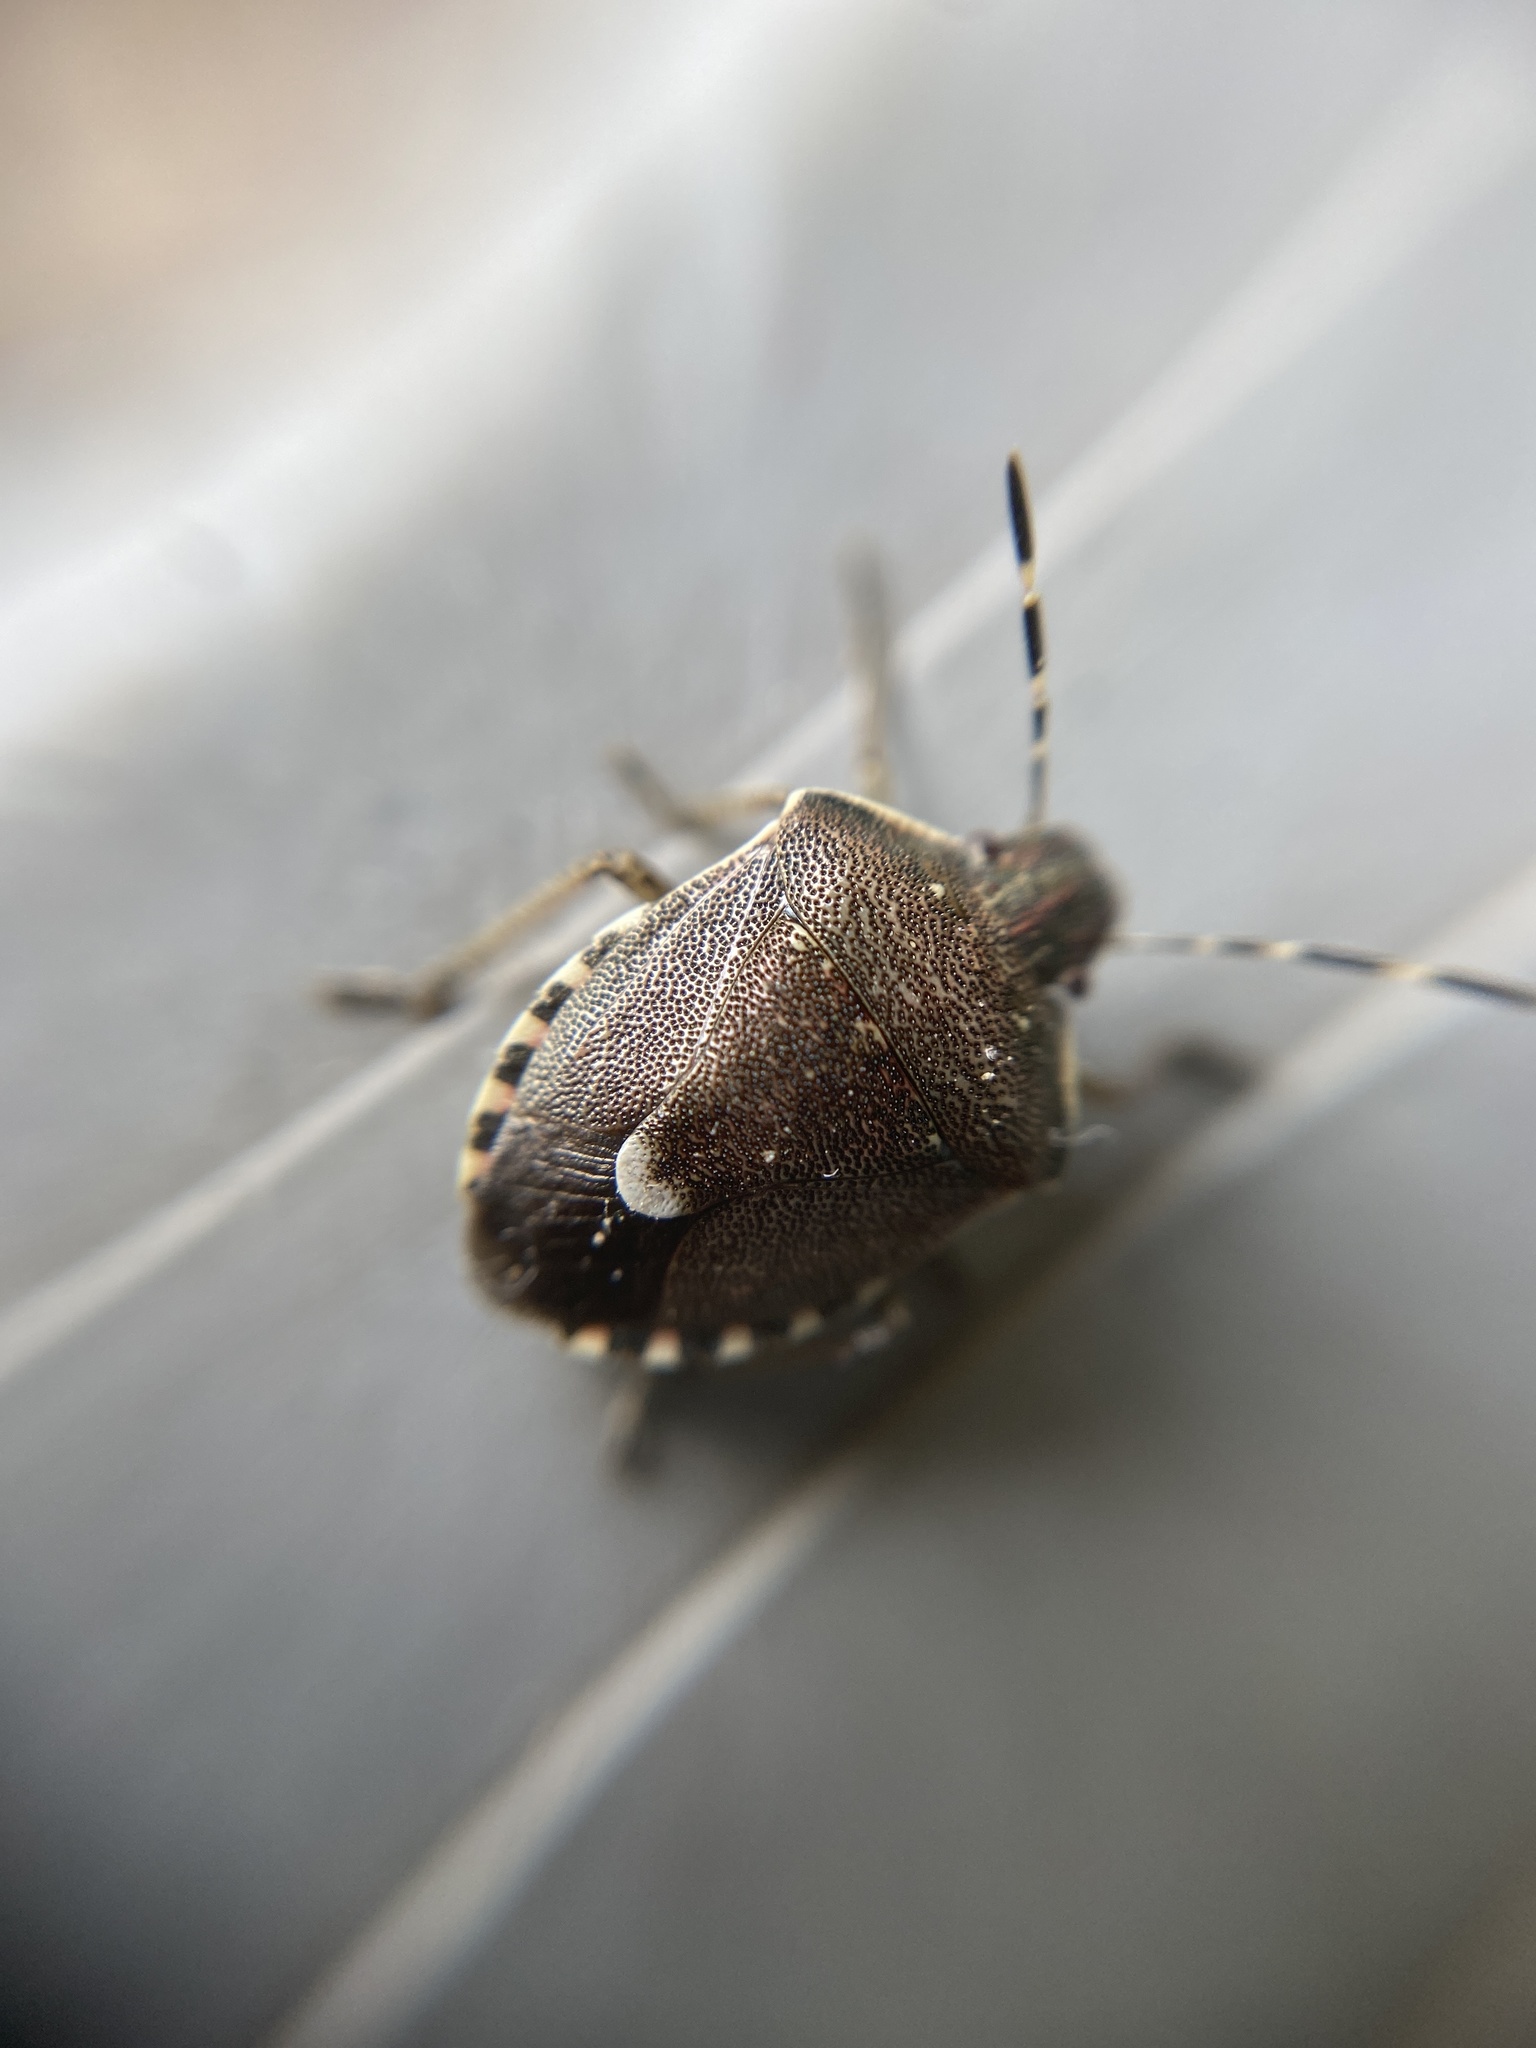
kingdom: Animalia
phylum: Arthropoda
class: Insecta
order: Hemiptera
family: Pentatomidae
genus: Holcostethus
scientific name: Holcostethus sphacelatus
